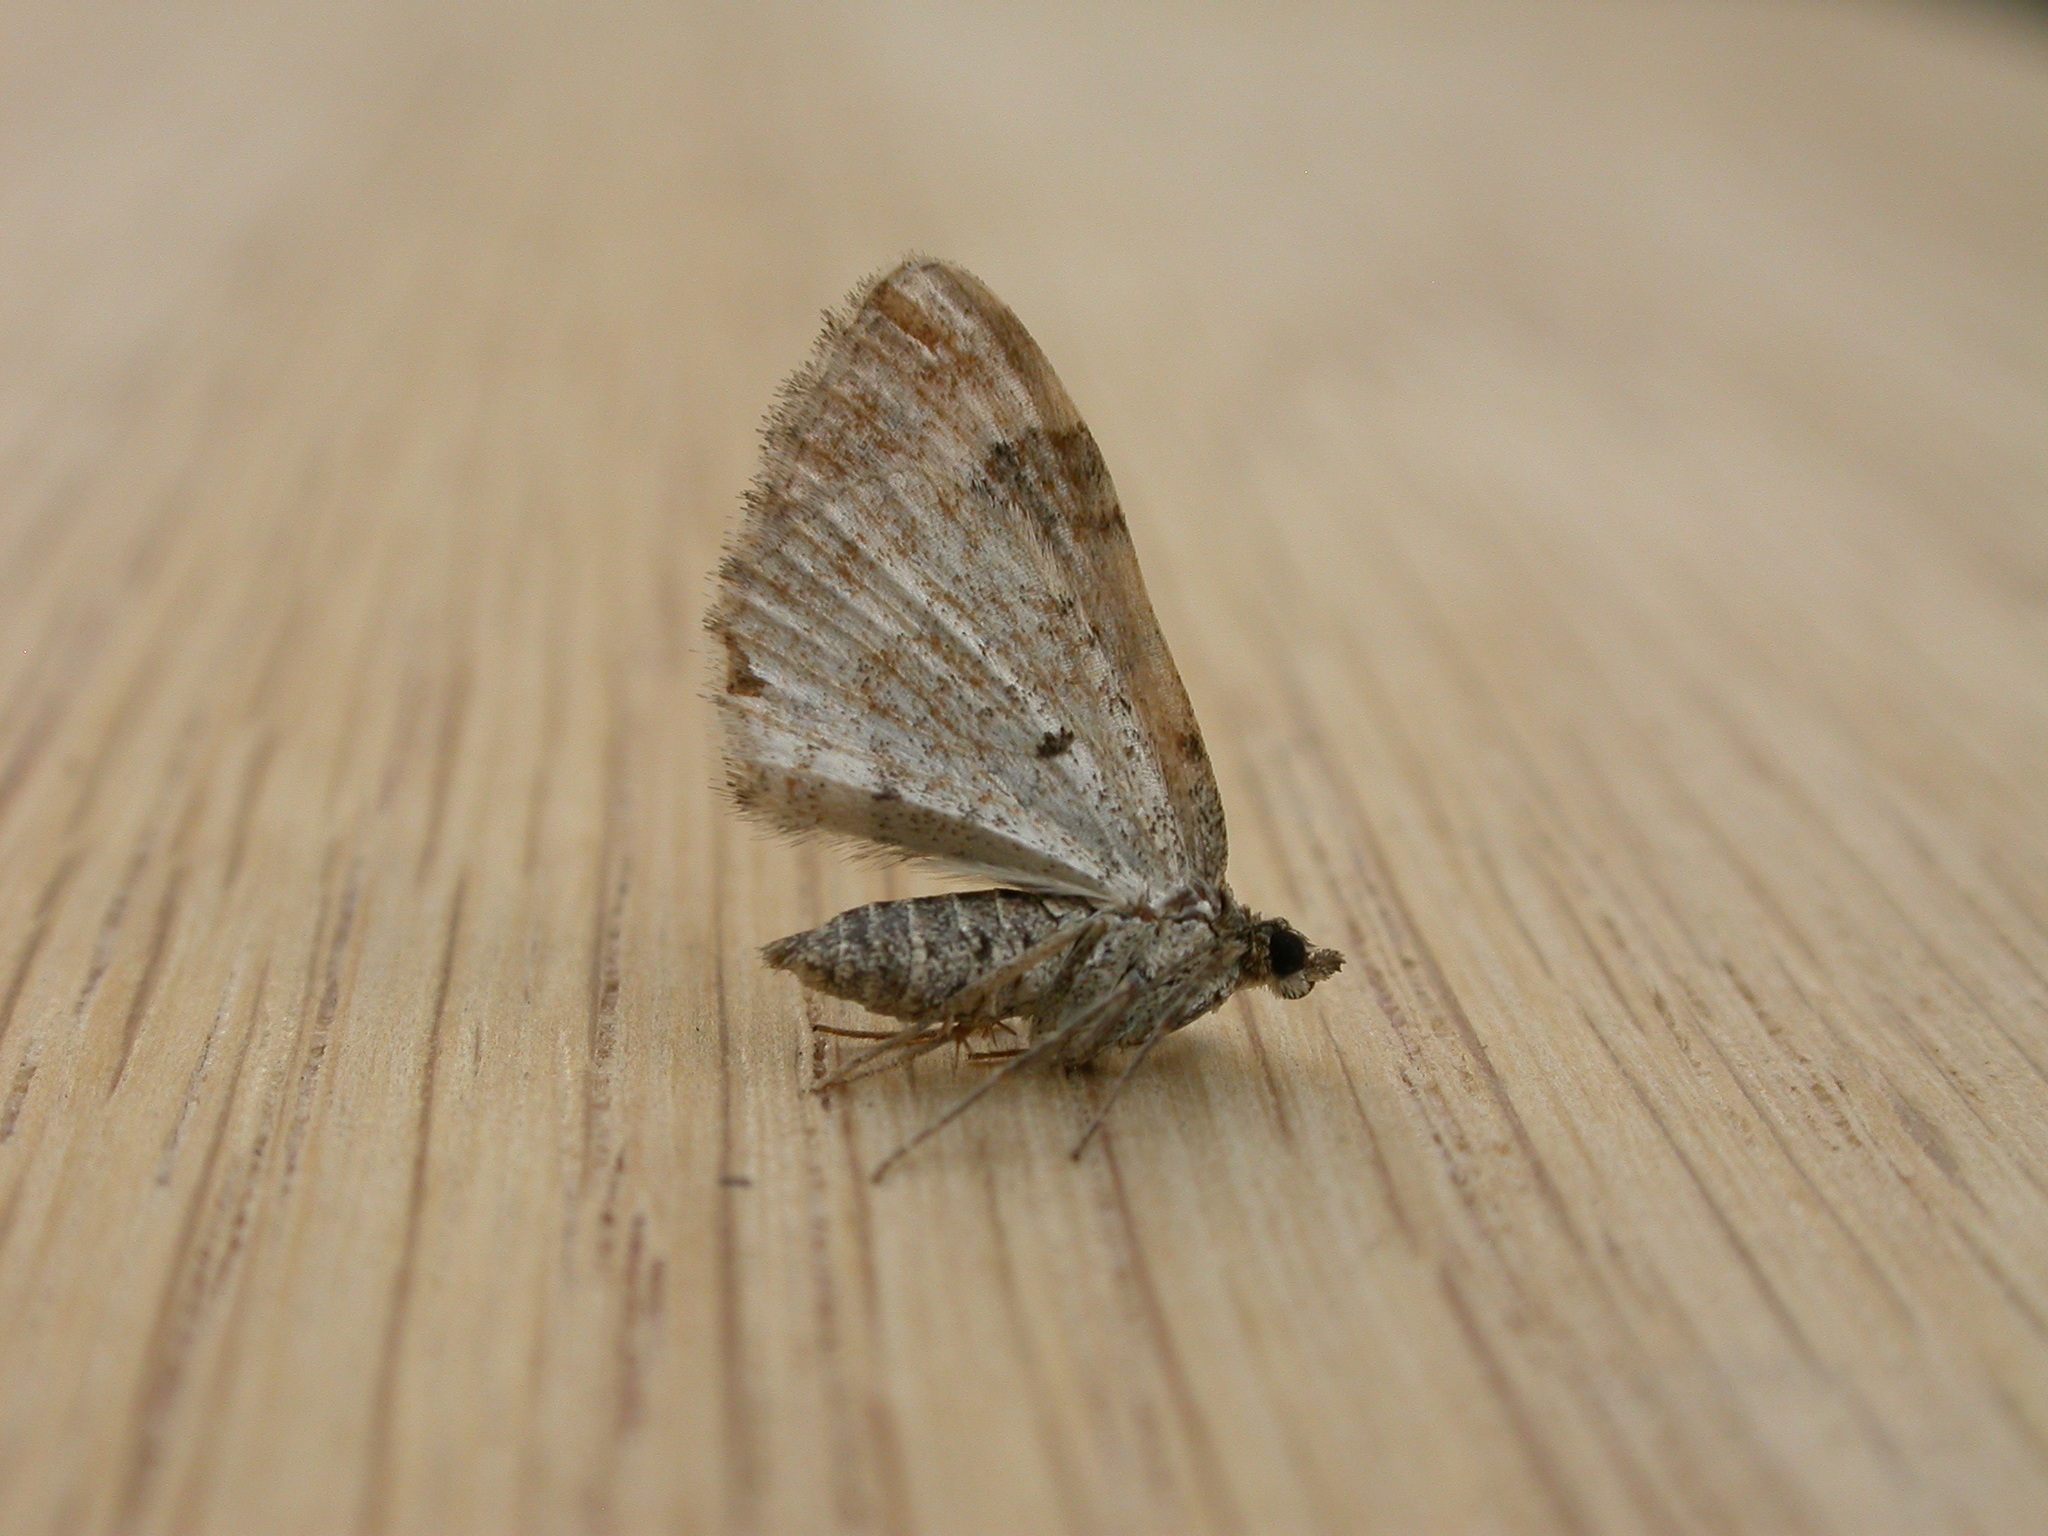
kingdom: Animalia
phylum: Arthropoda
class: Insecta
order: Lepidoptera
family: Geometridae
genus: Xanthorhoe
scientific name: Xanthorhoe ferrugata
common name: Dark-barred twin-spot carpet
